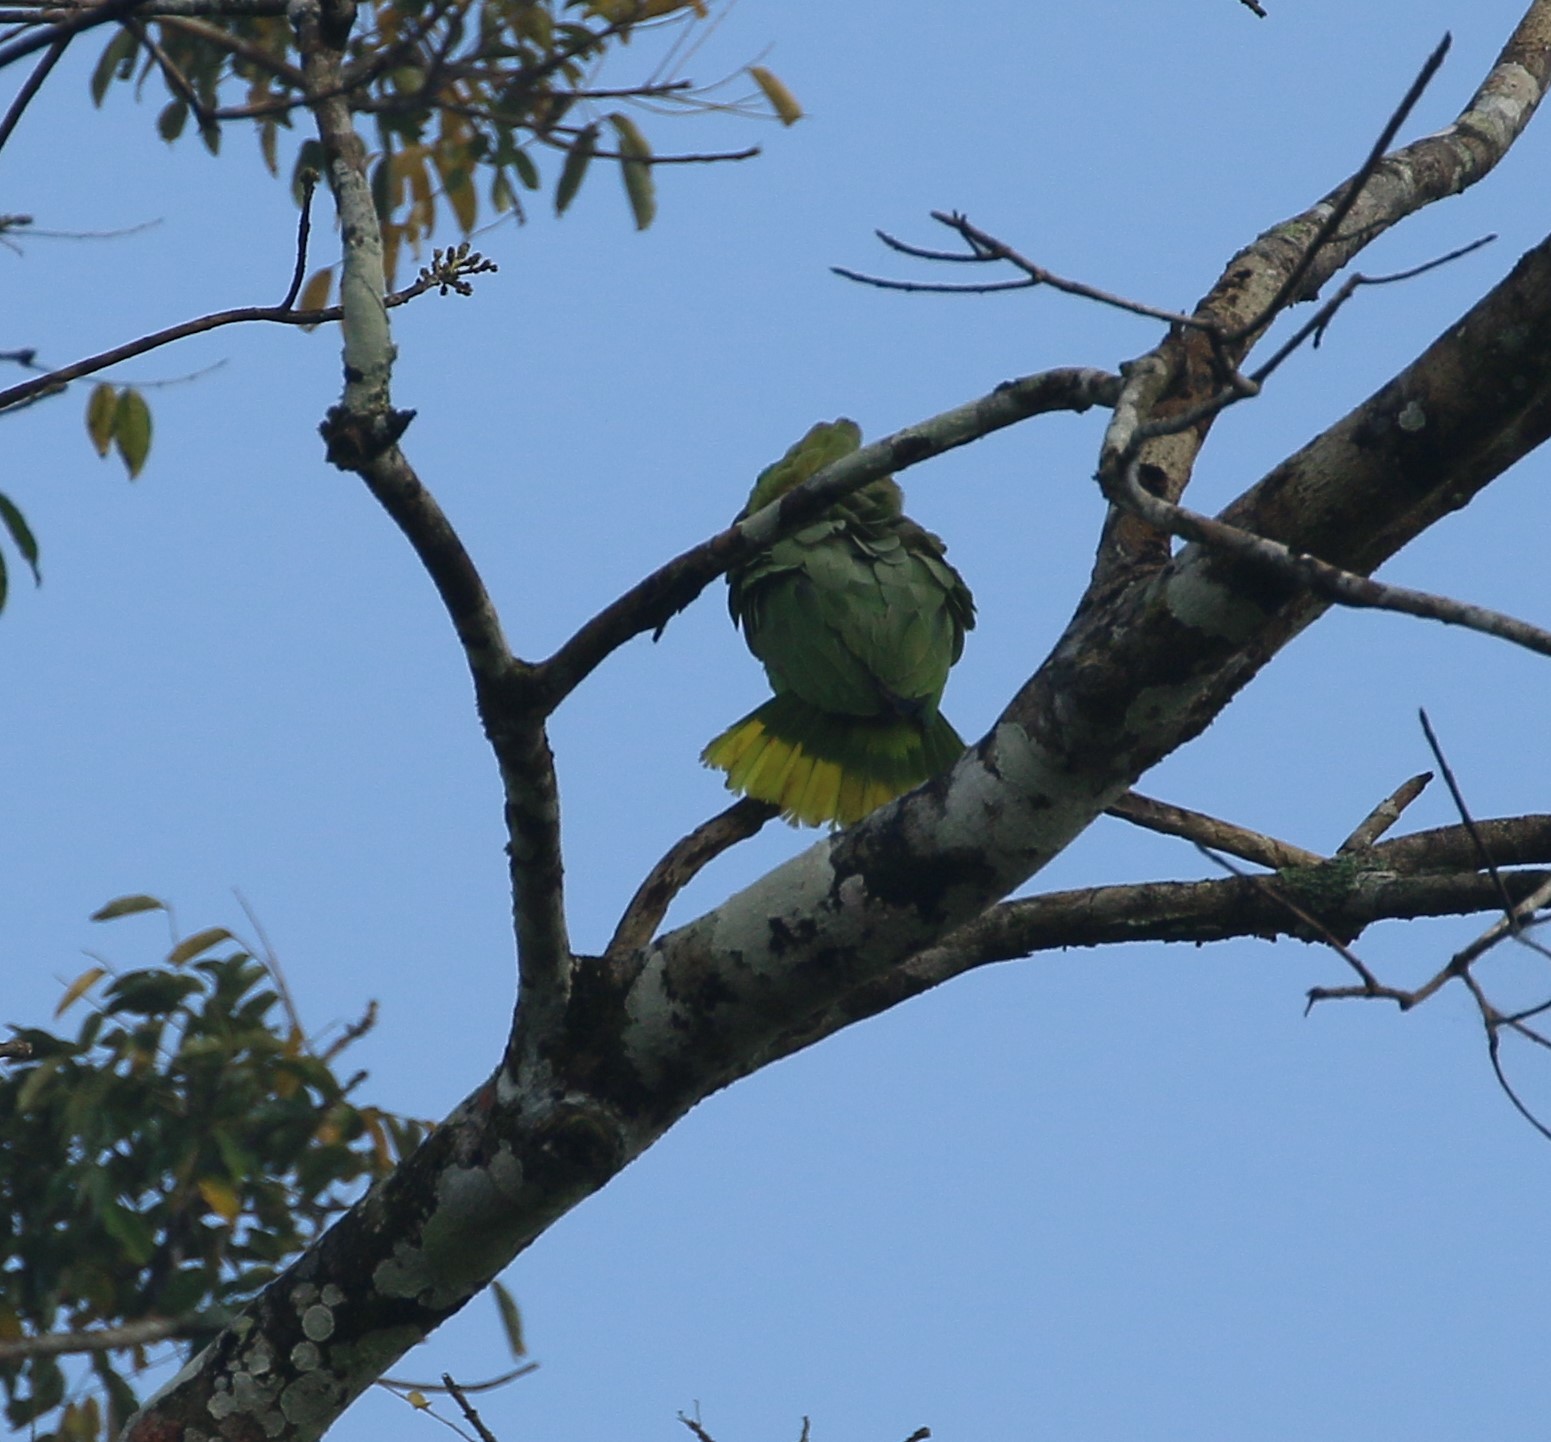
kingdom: Animalia
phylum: Chordata
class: Aves
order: Psittaciformes
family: Psittacidae
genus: Amazona
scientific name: Amazona farinosa
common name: Mealy parrot
